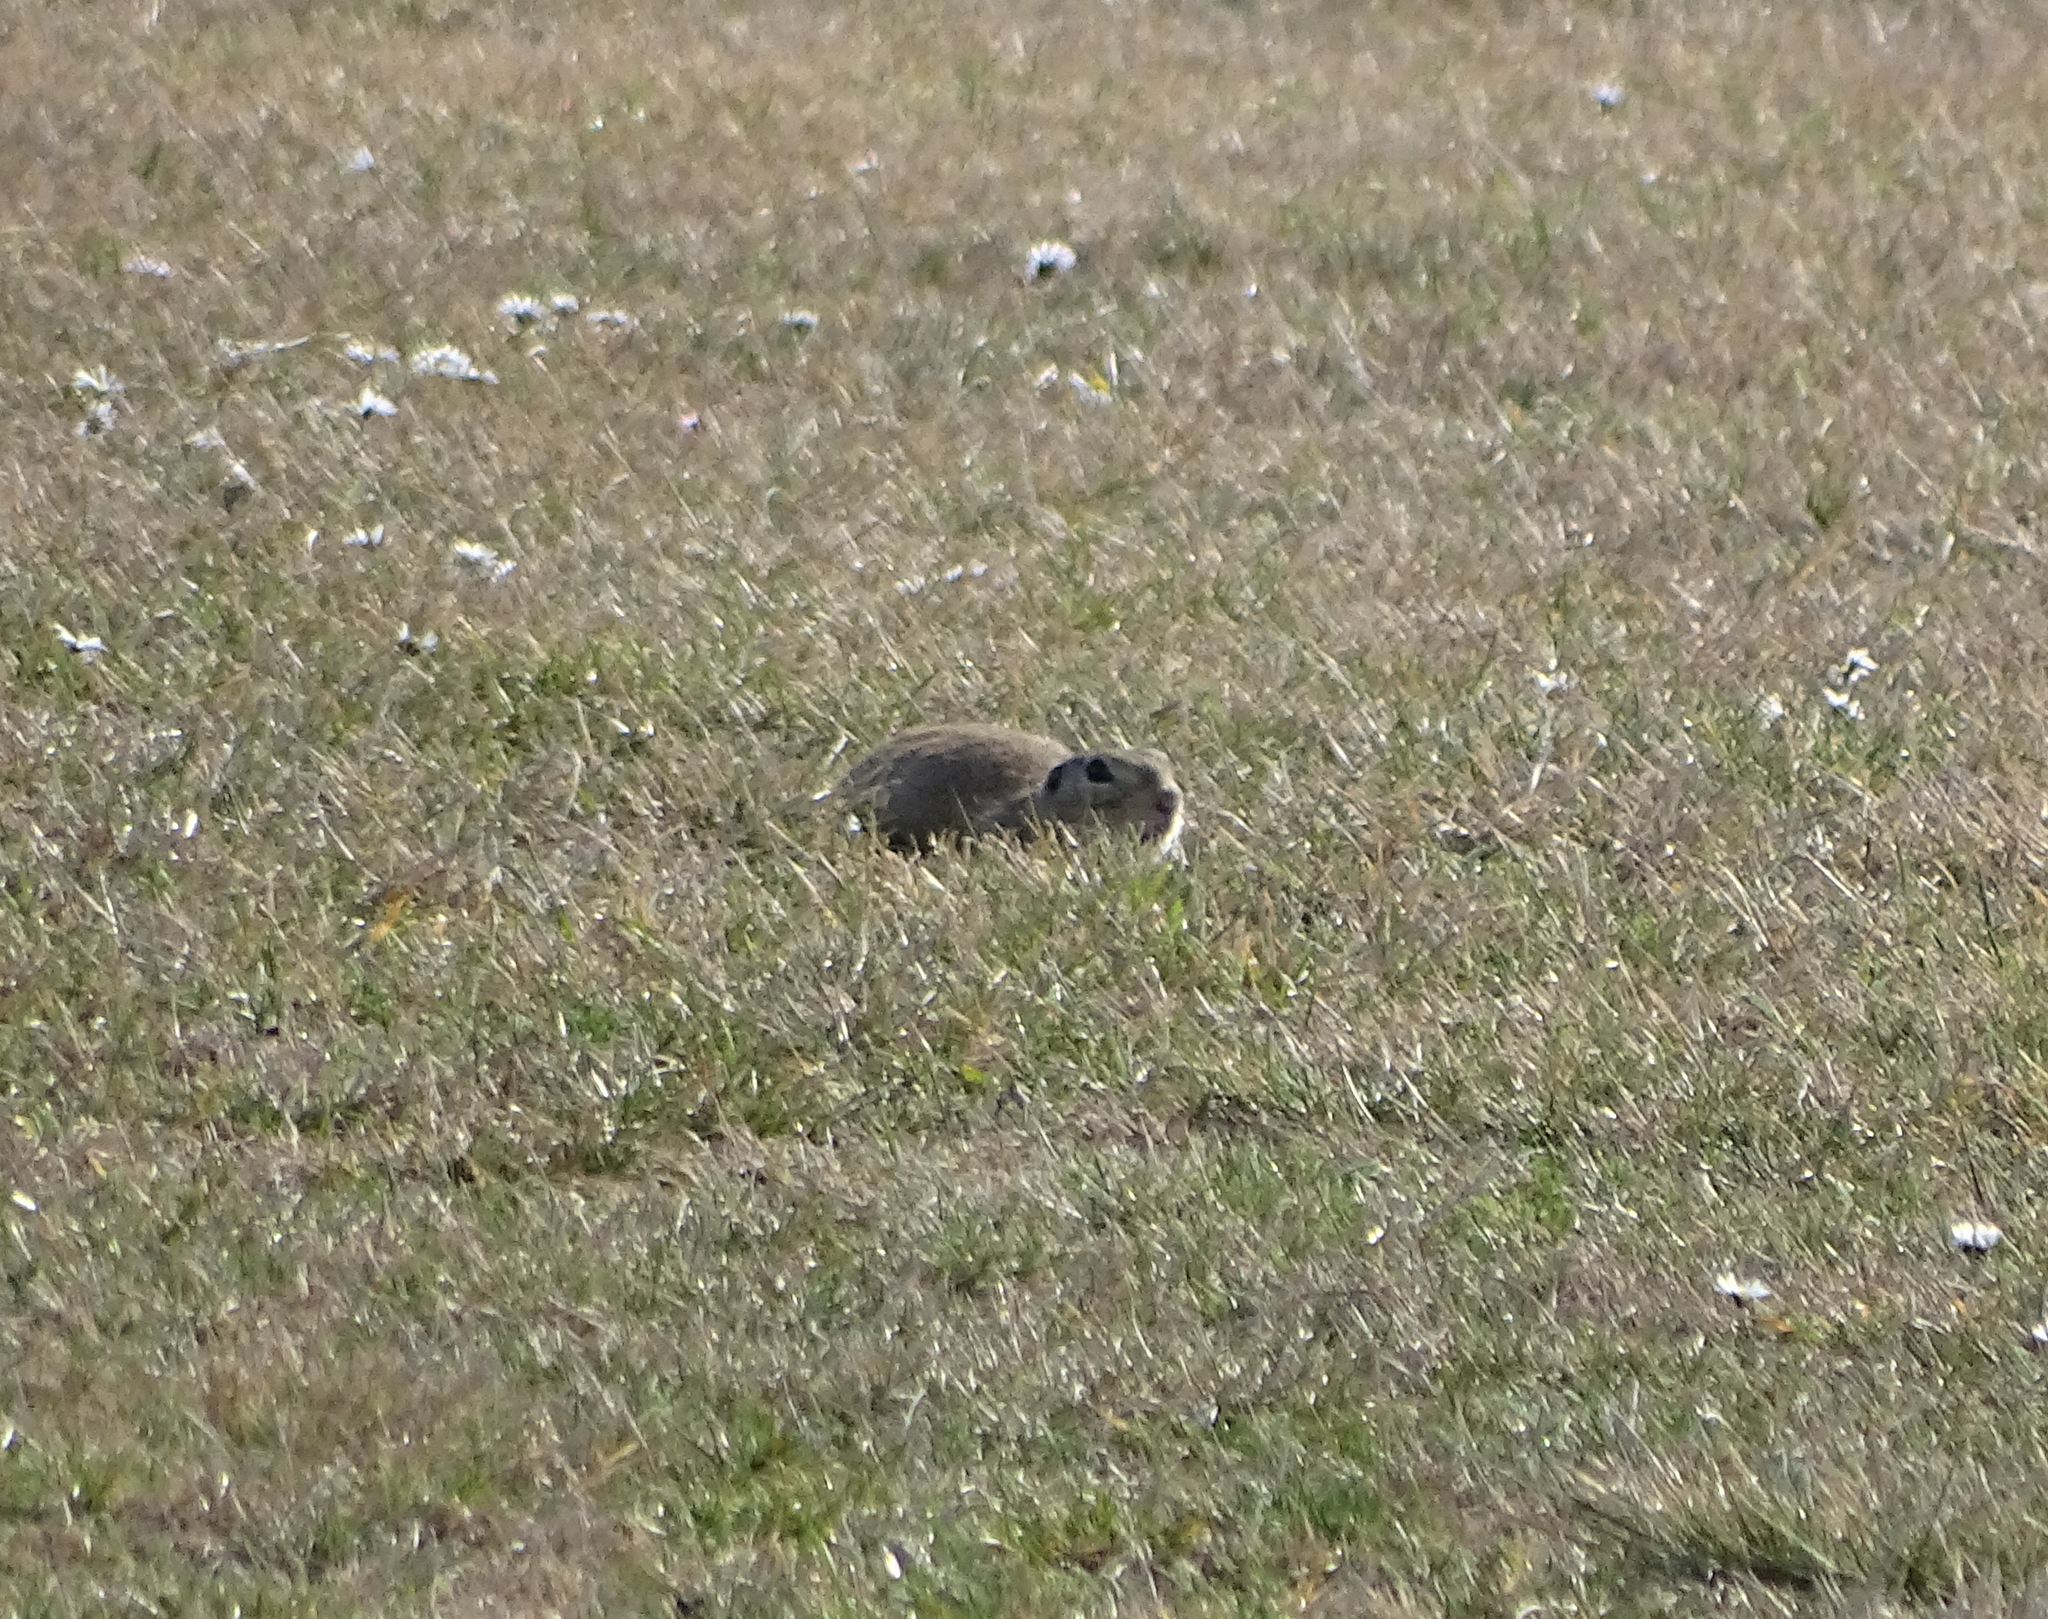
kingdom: Animalia
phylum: Chordata
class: Mammalia
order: Rodentia
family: Sciuridae
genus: Spermophilus
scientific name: Spermophilus citellus
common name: European ground squirrel
